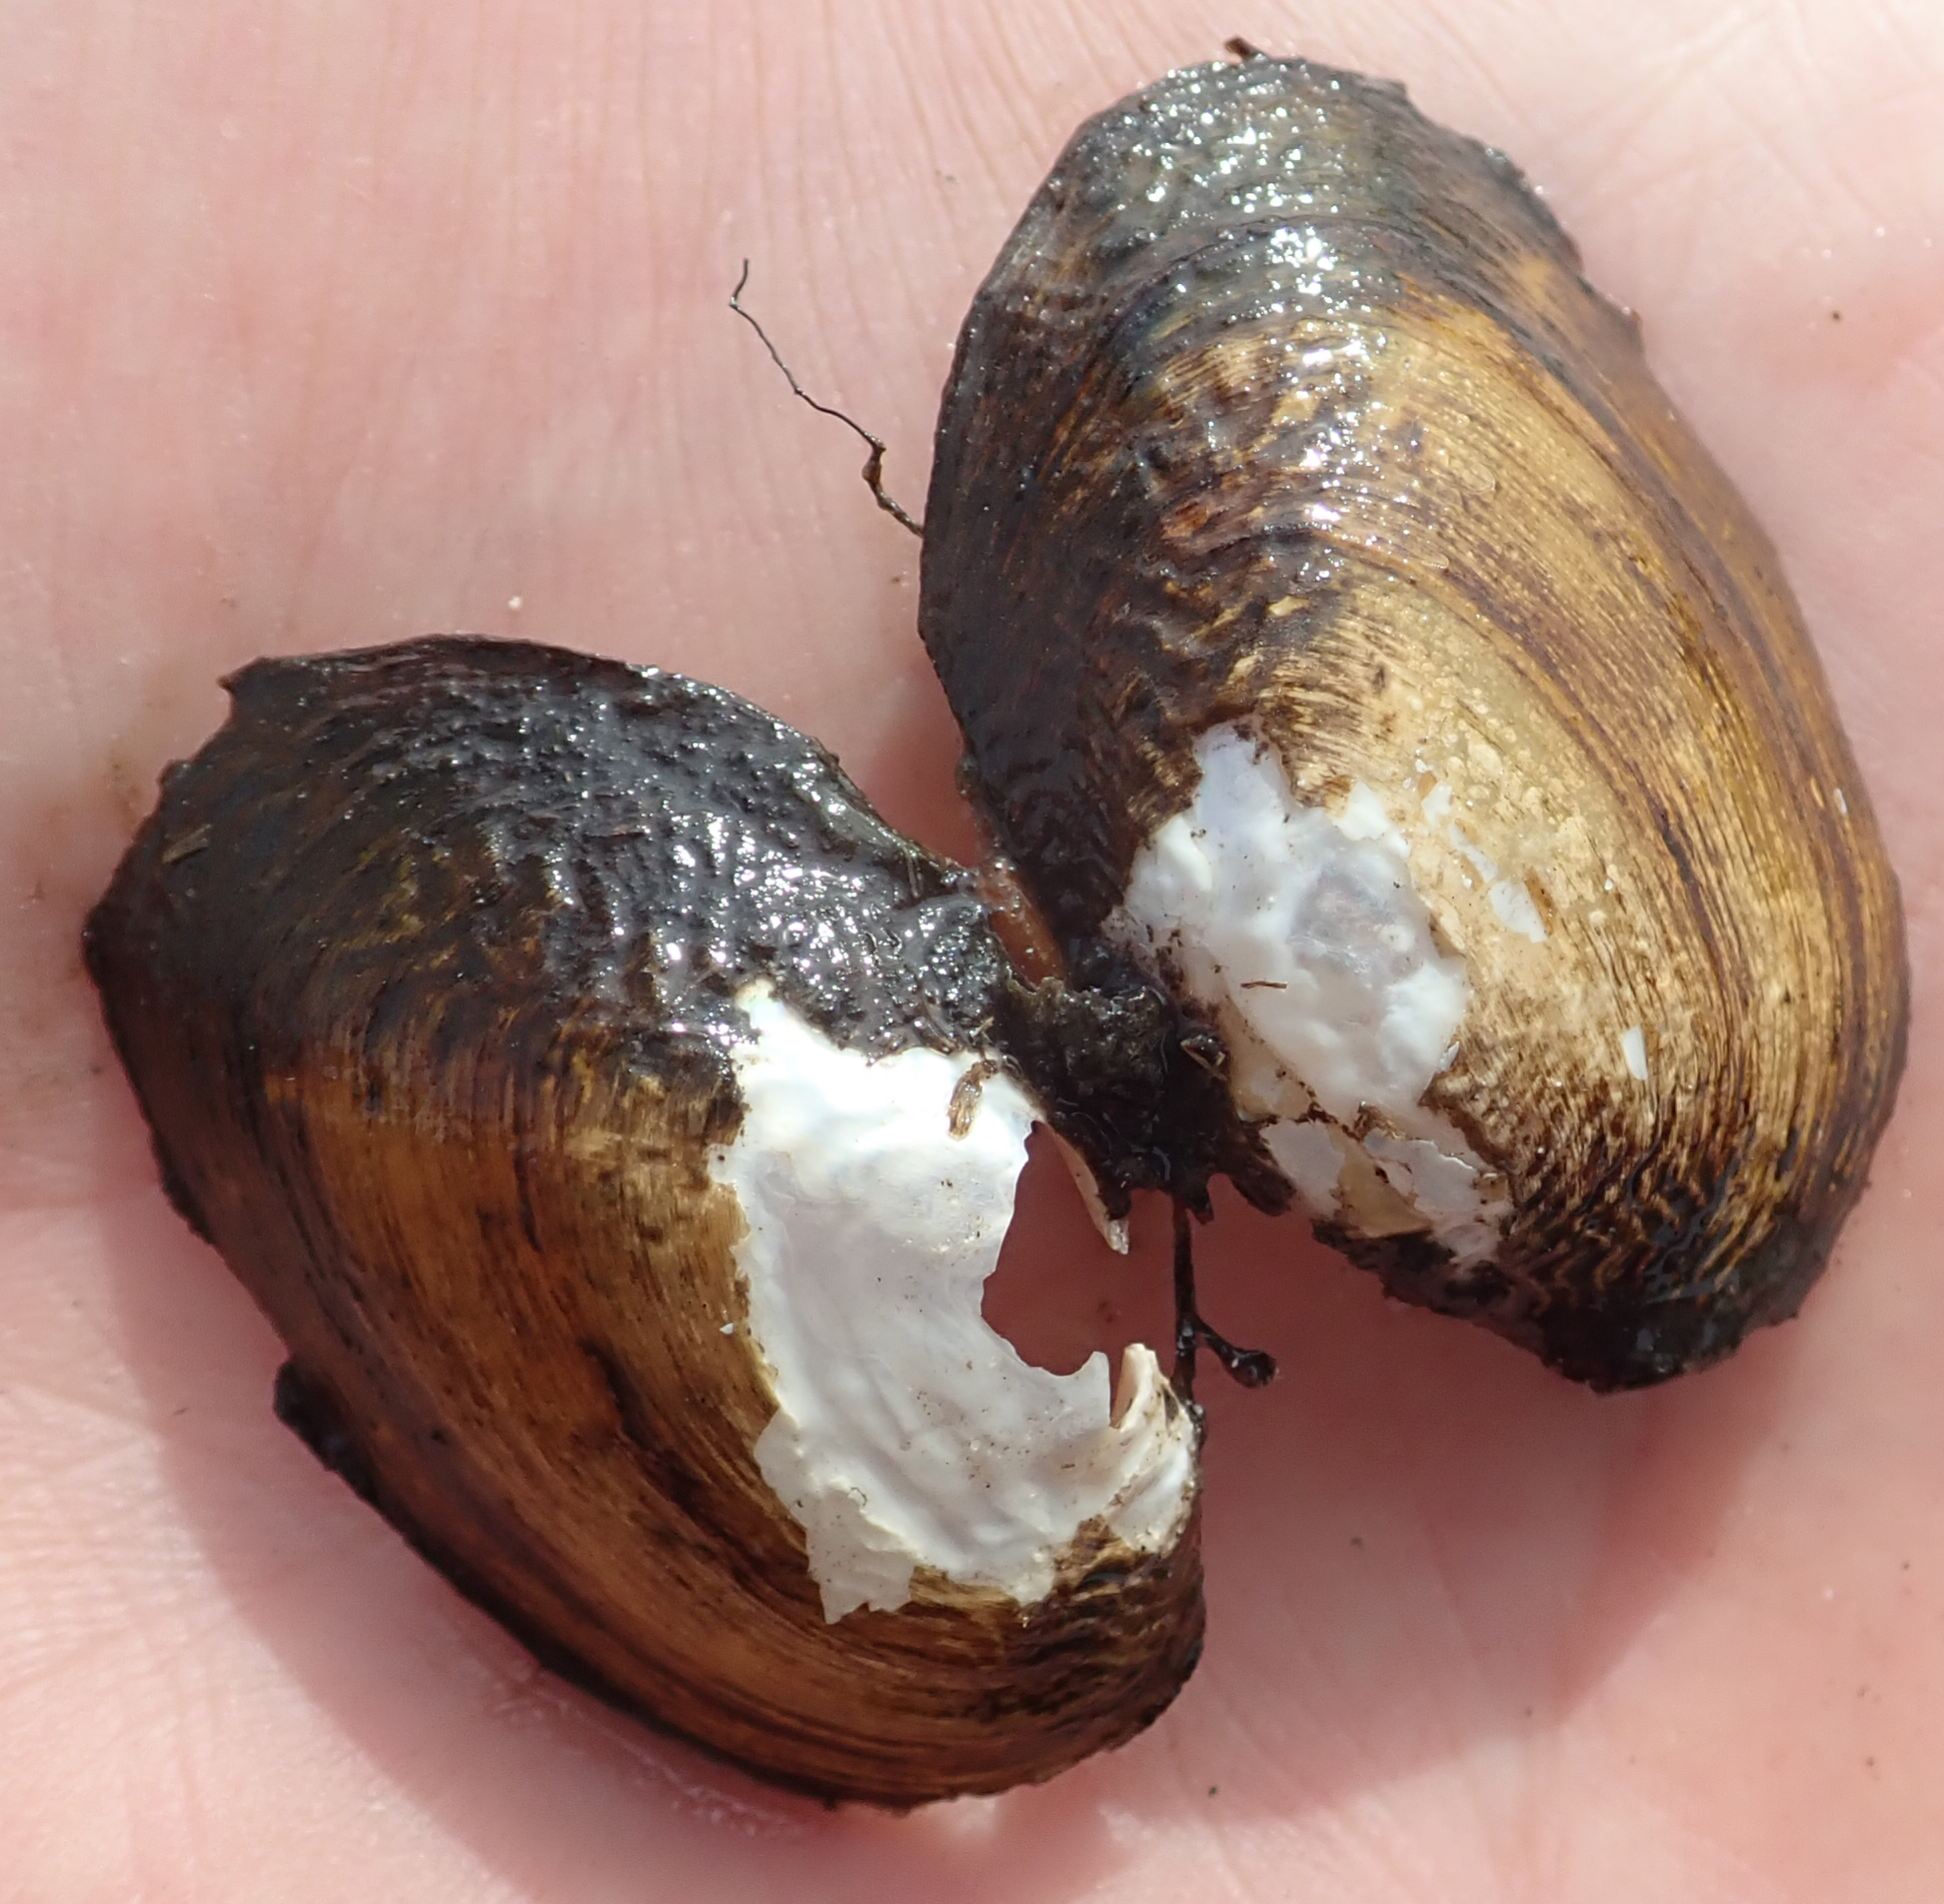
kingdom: Animalia
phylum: Mollusca
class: Bivalvia
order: Unionida
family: Unionidae
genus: Coelatura
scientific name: Coelatura kunenensis
